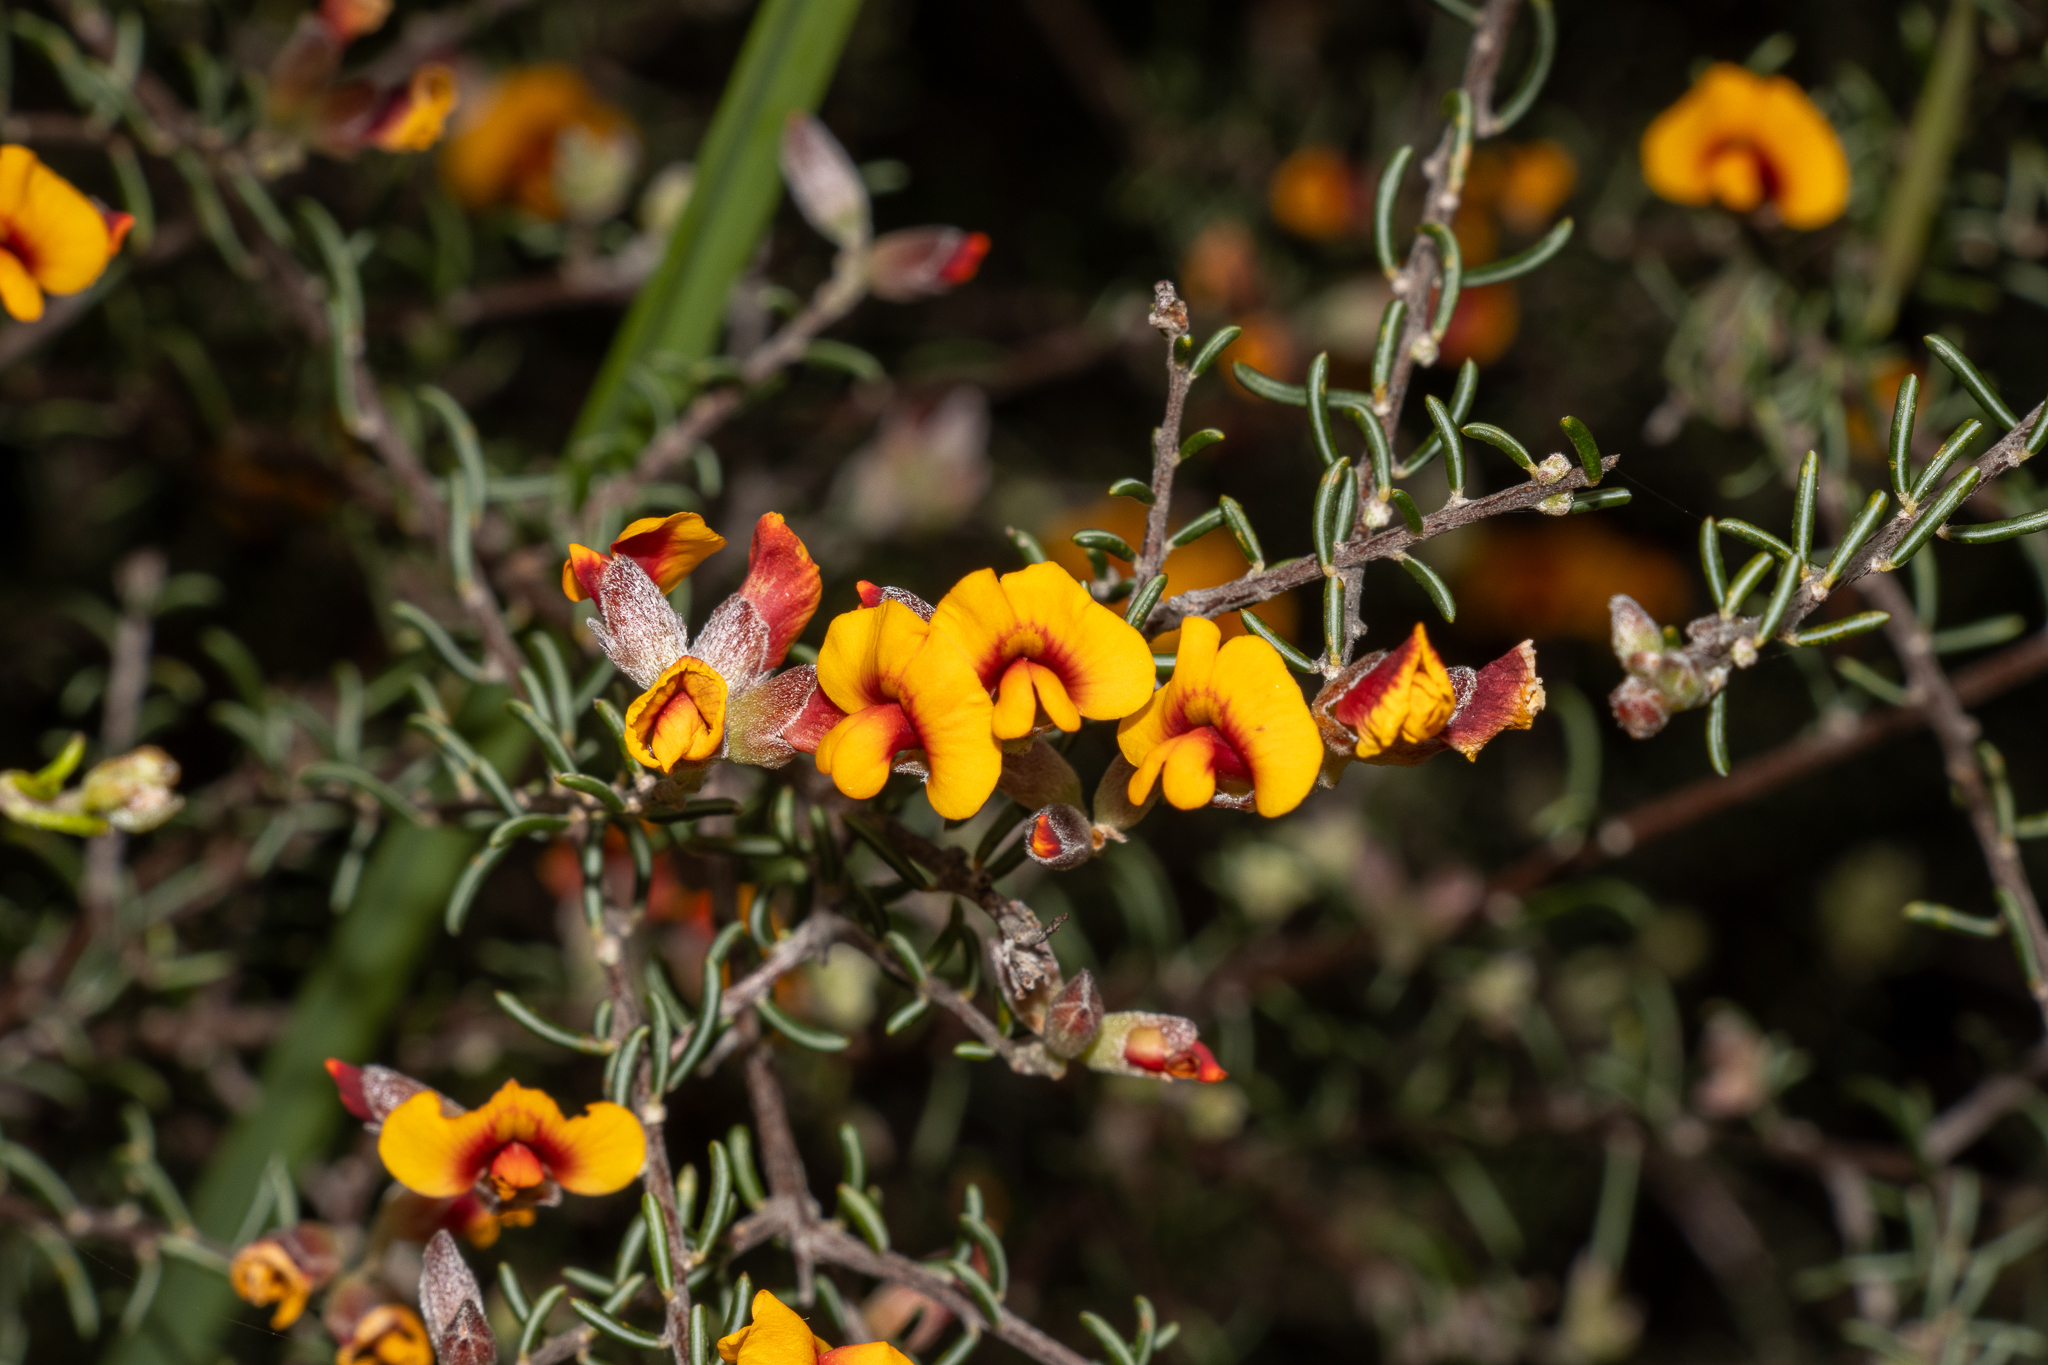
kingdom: Plantae
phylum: Tracheophyta
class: Magnoliopsida
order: Fabales
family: Fabaceae
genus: Dillwynia
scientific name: Dillwynia uncinata
